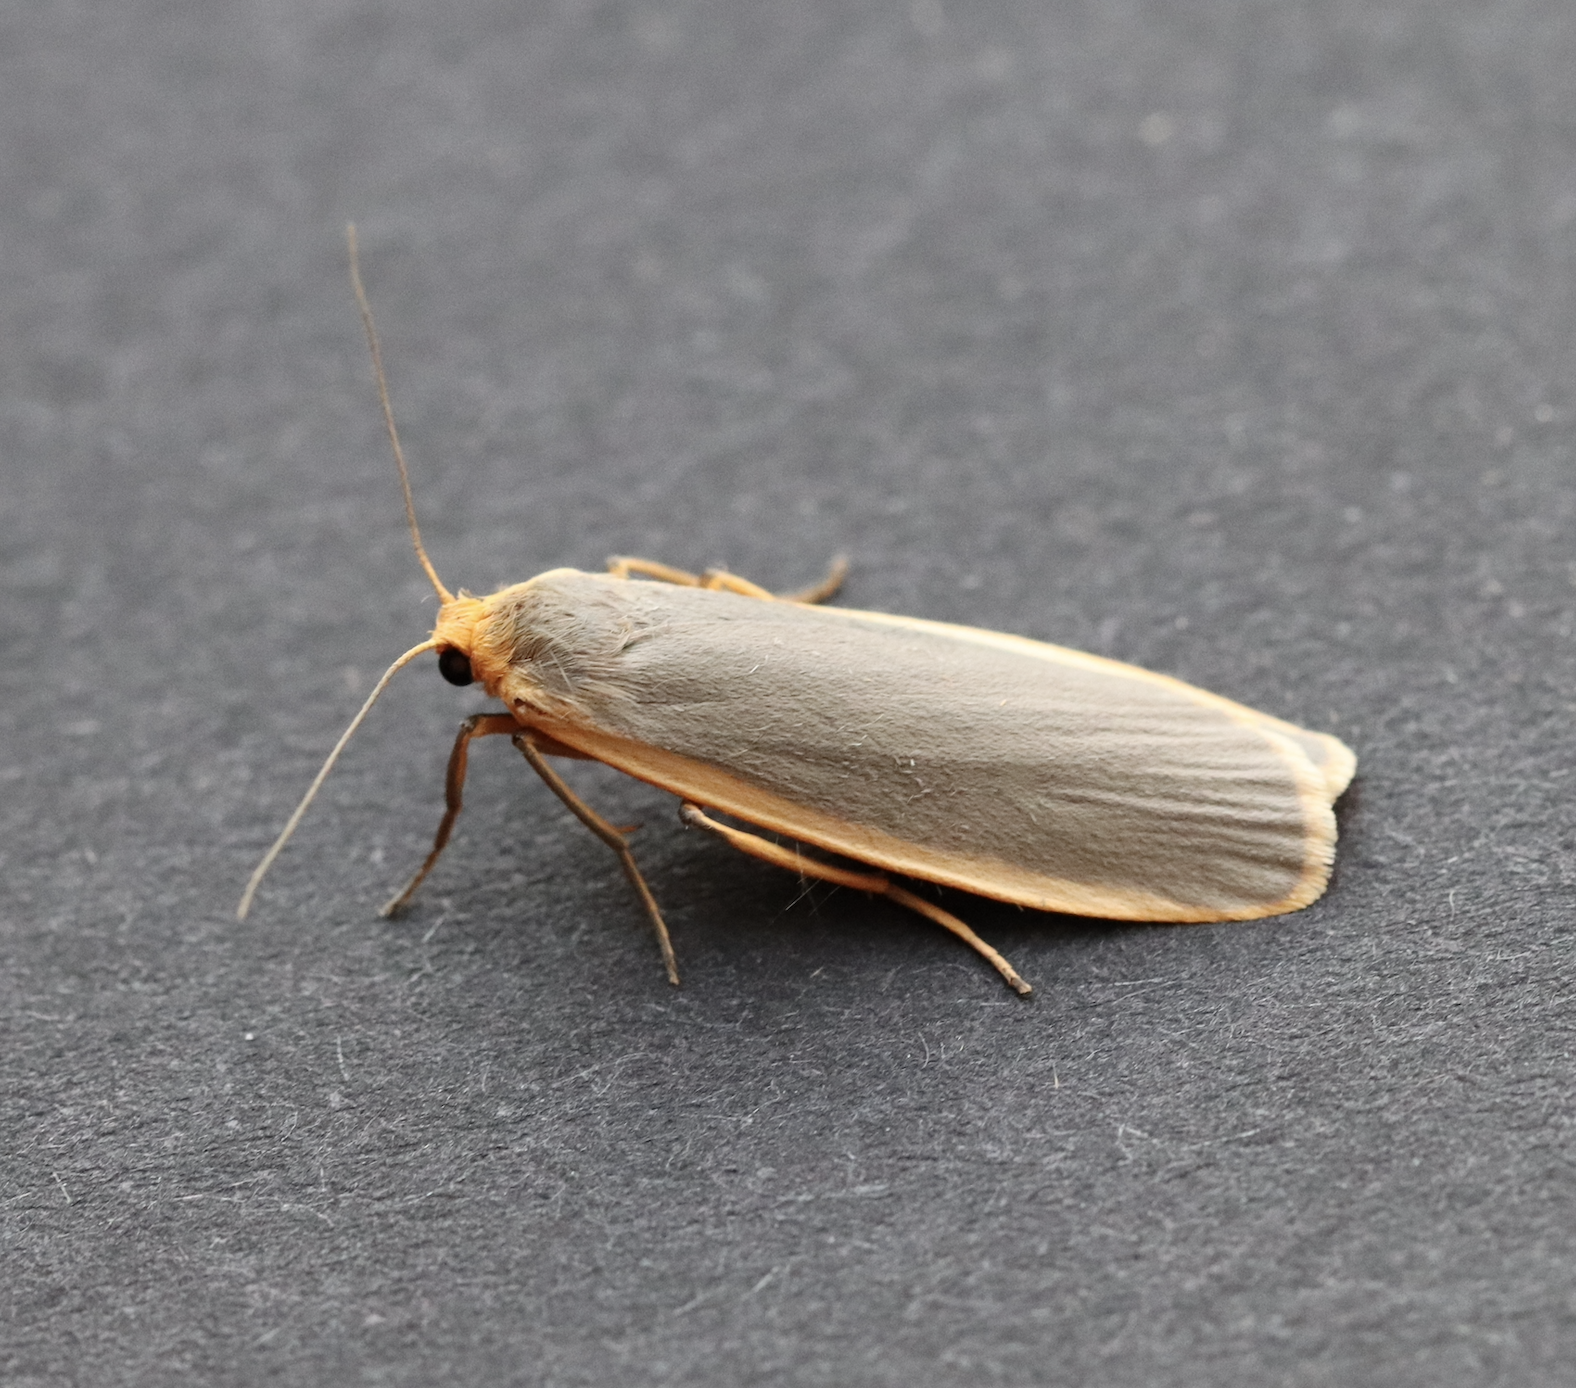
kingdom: Animalia
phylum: Arthropoda
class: Insecta
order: Lepidoptera
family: Erebidae
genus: Nyea
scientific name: Nyea lurideola
